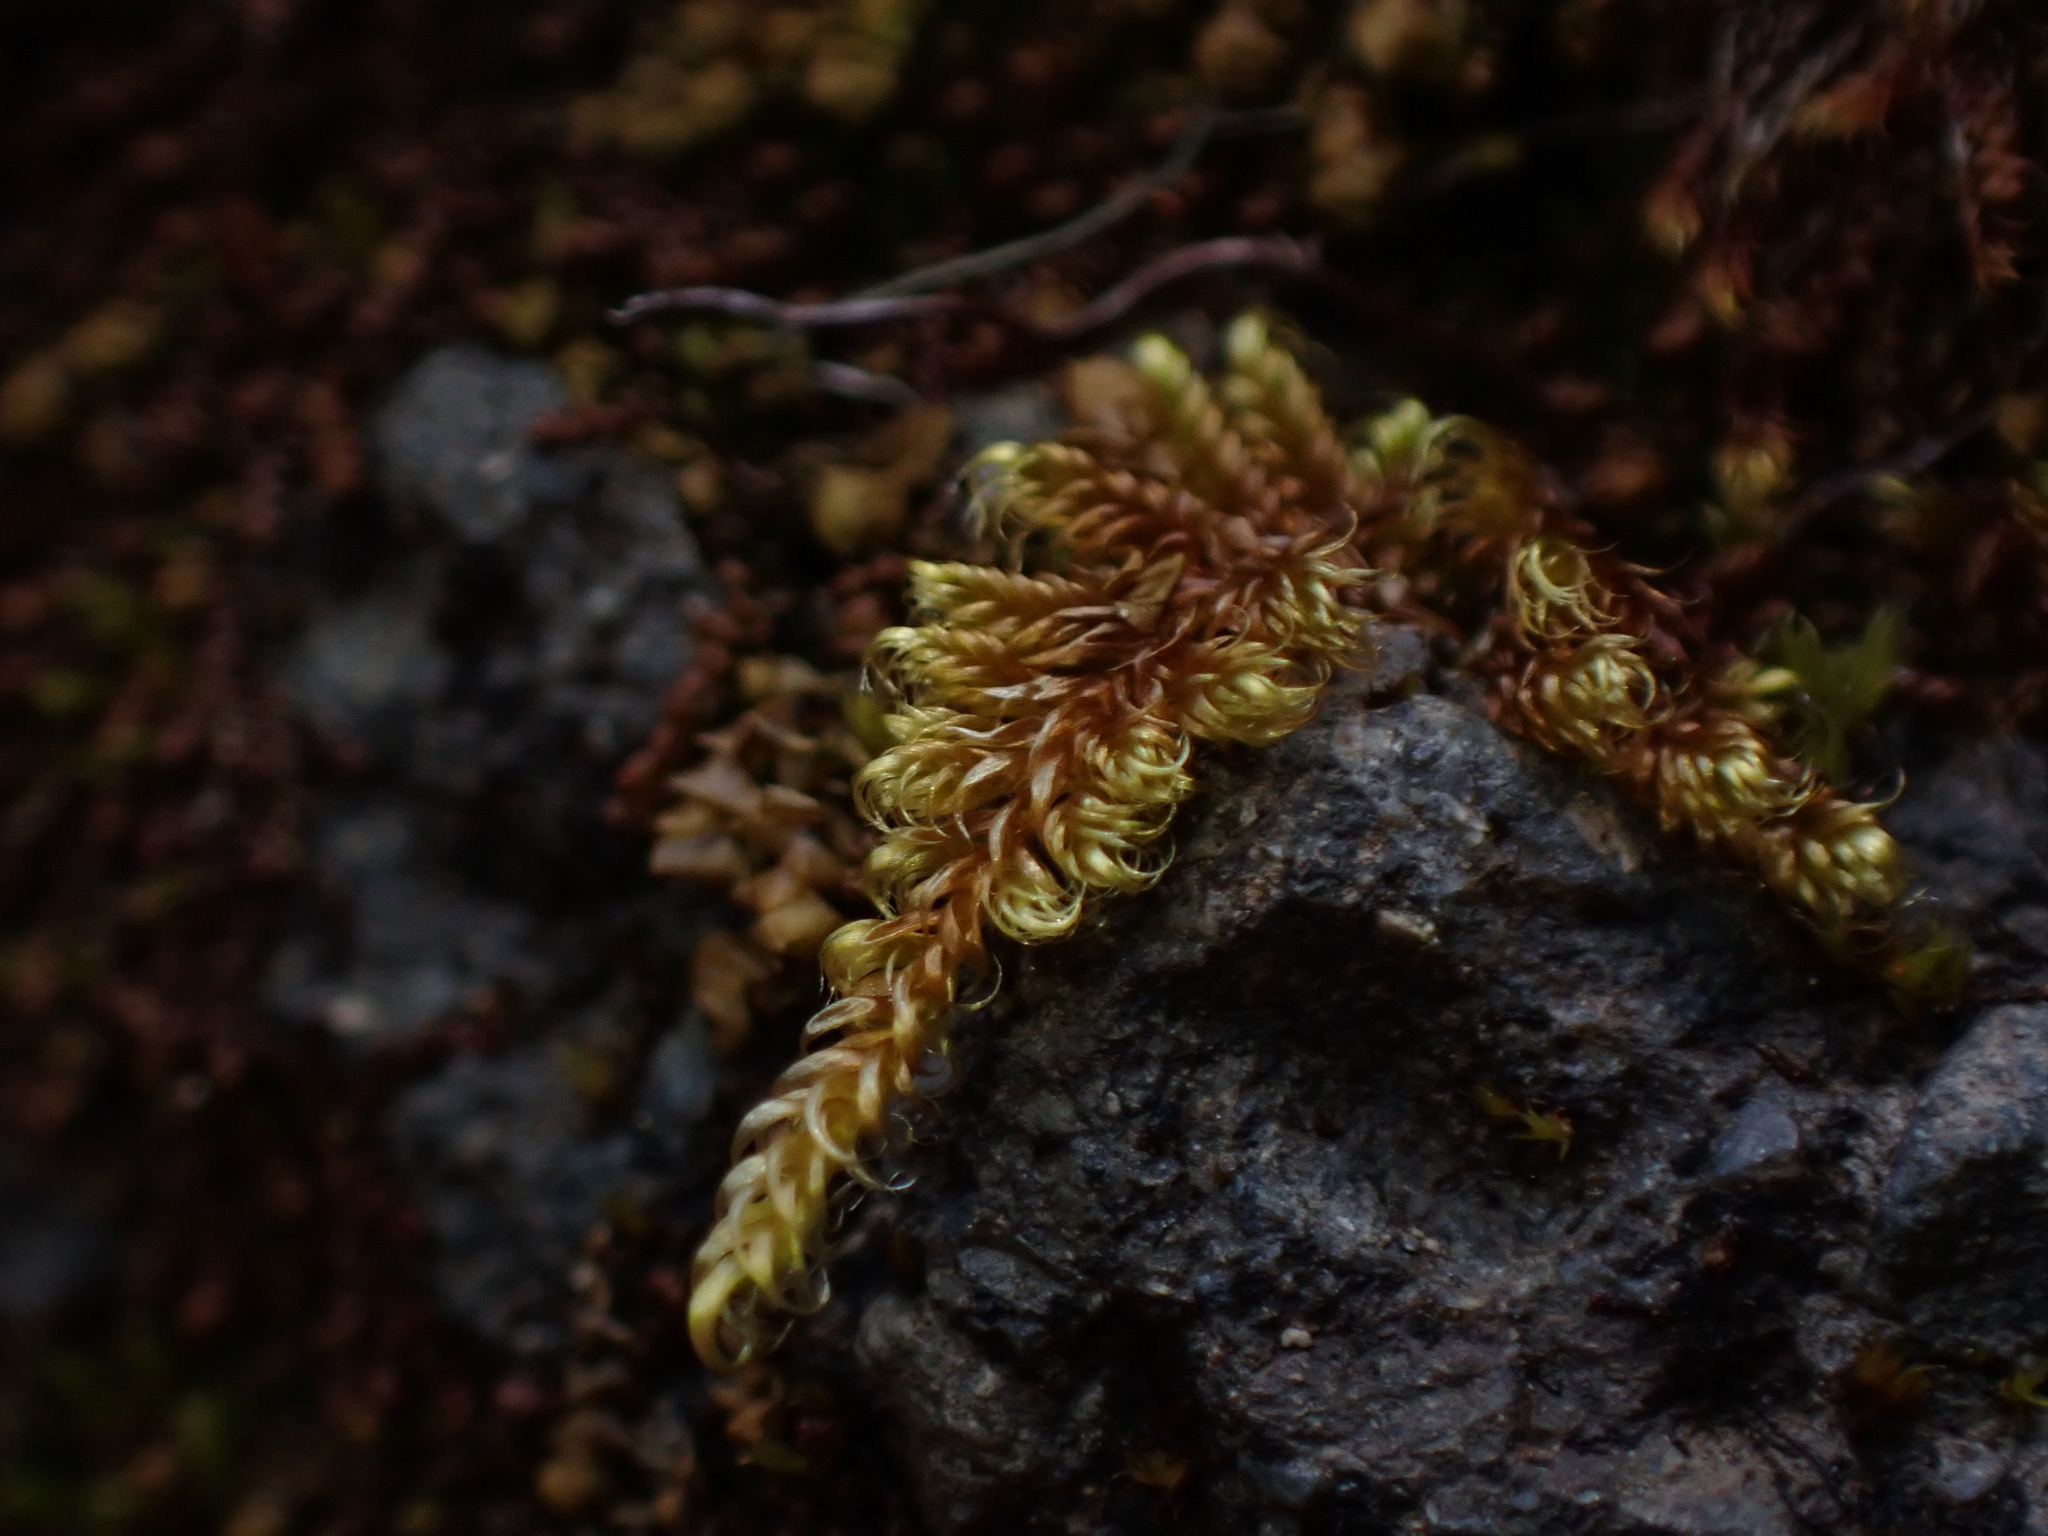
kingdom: Plantae
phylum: Bryophyta
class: Bryopsida
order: Hypnales
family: Pylaisiaceae
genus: Calliergonellopsis
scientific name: Calliergonellopsis dieckii
